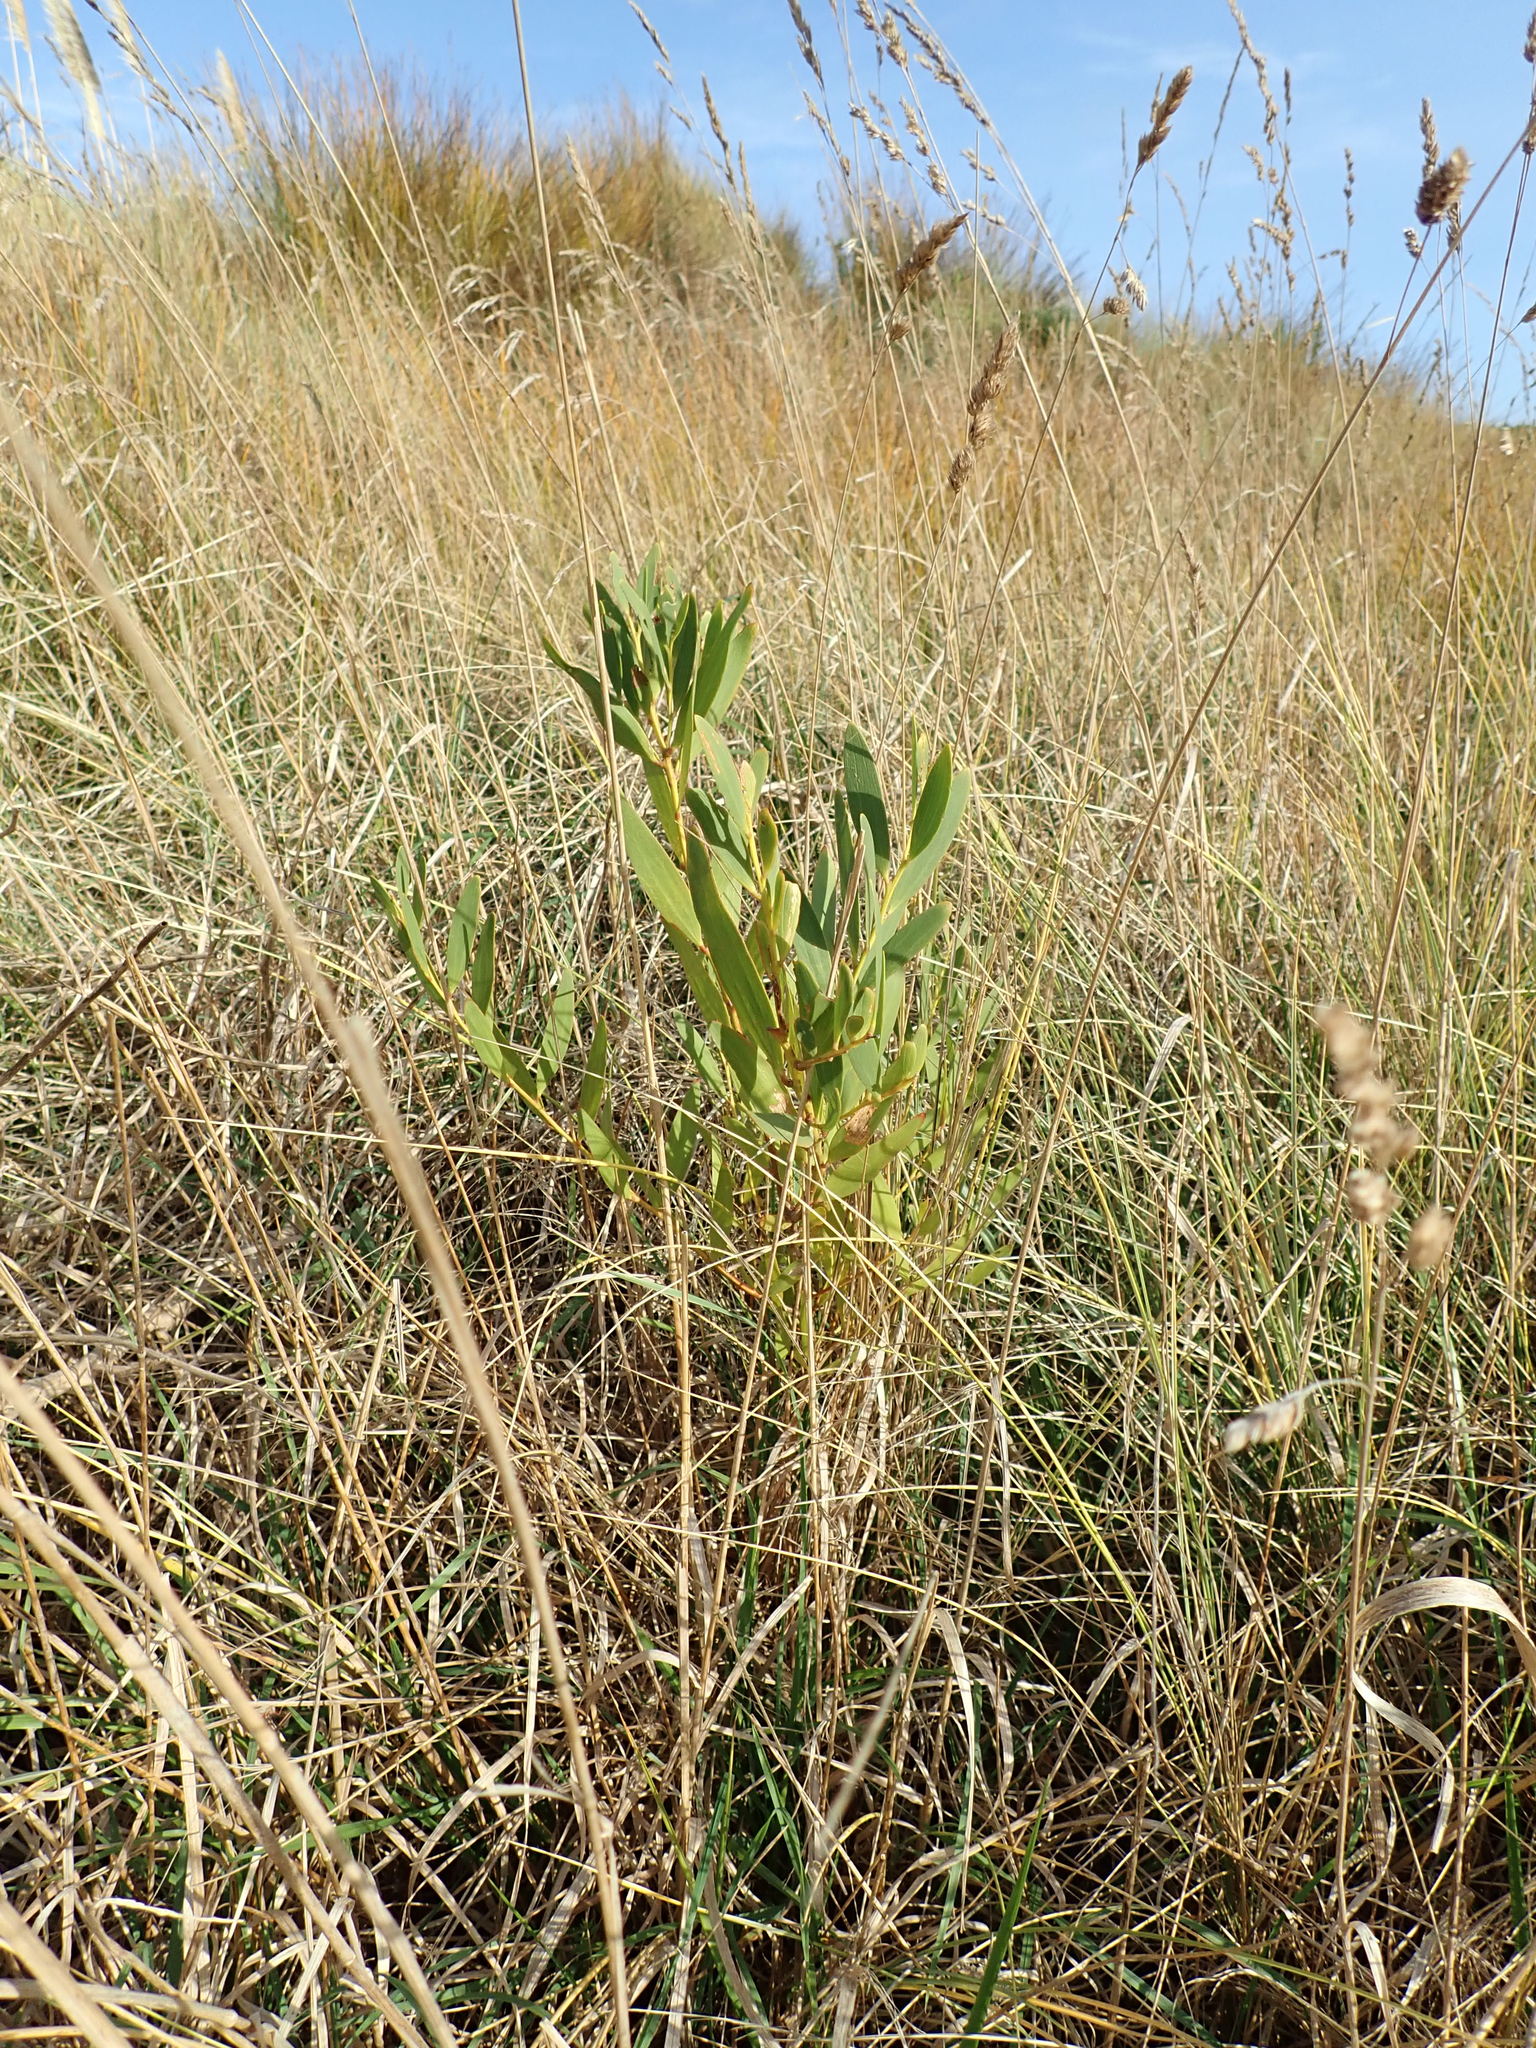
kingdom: Plantae
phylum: Tracheophyta
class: Magnoliopsida
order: Fabales
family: Fabaceae
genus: Acacia
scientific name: Acacia longifolia
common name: Sydney golden wattle
